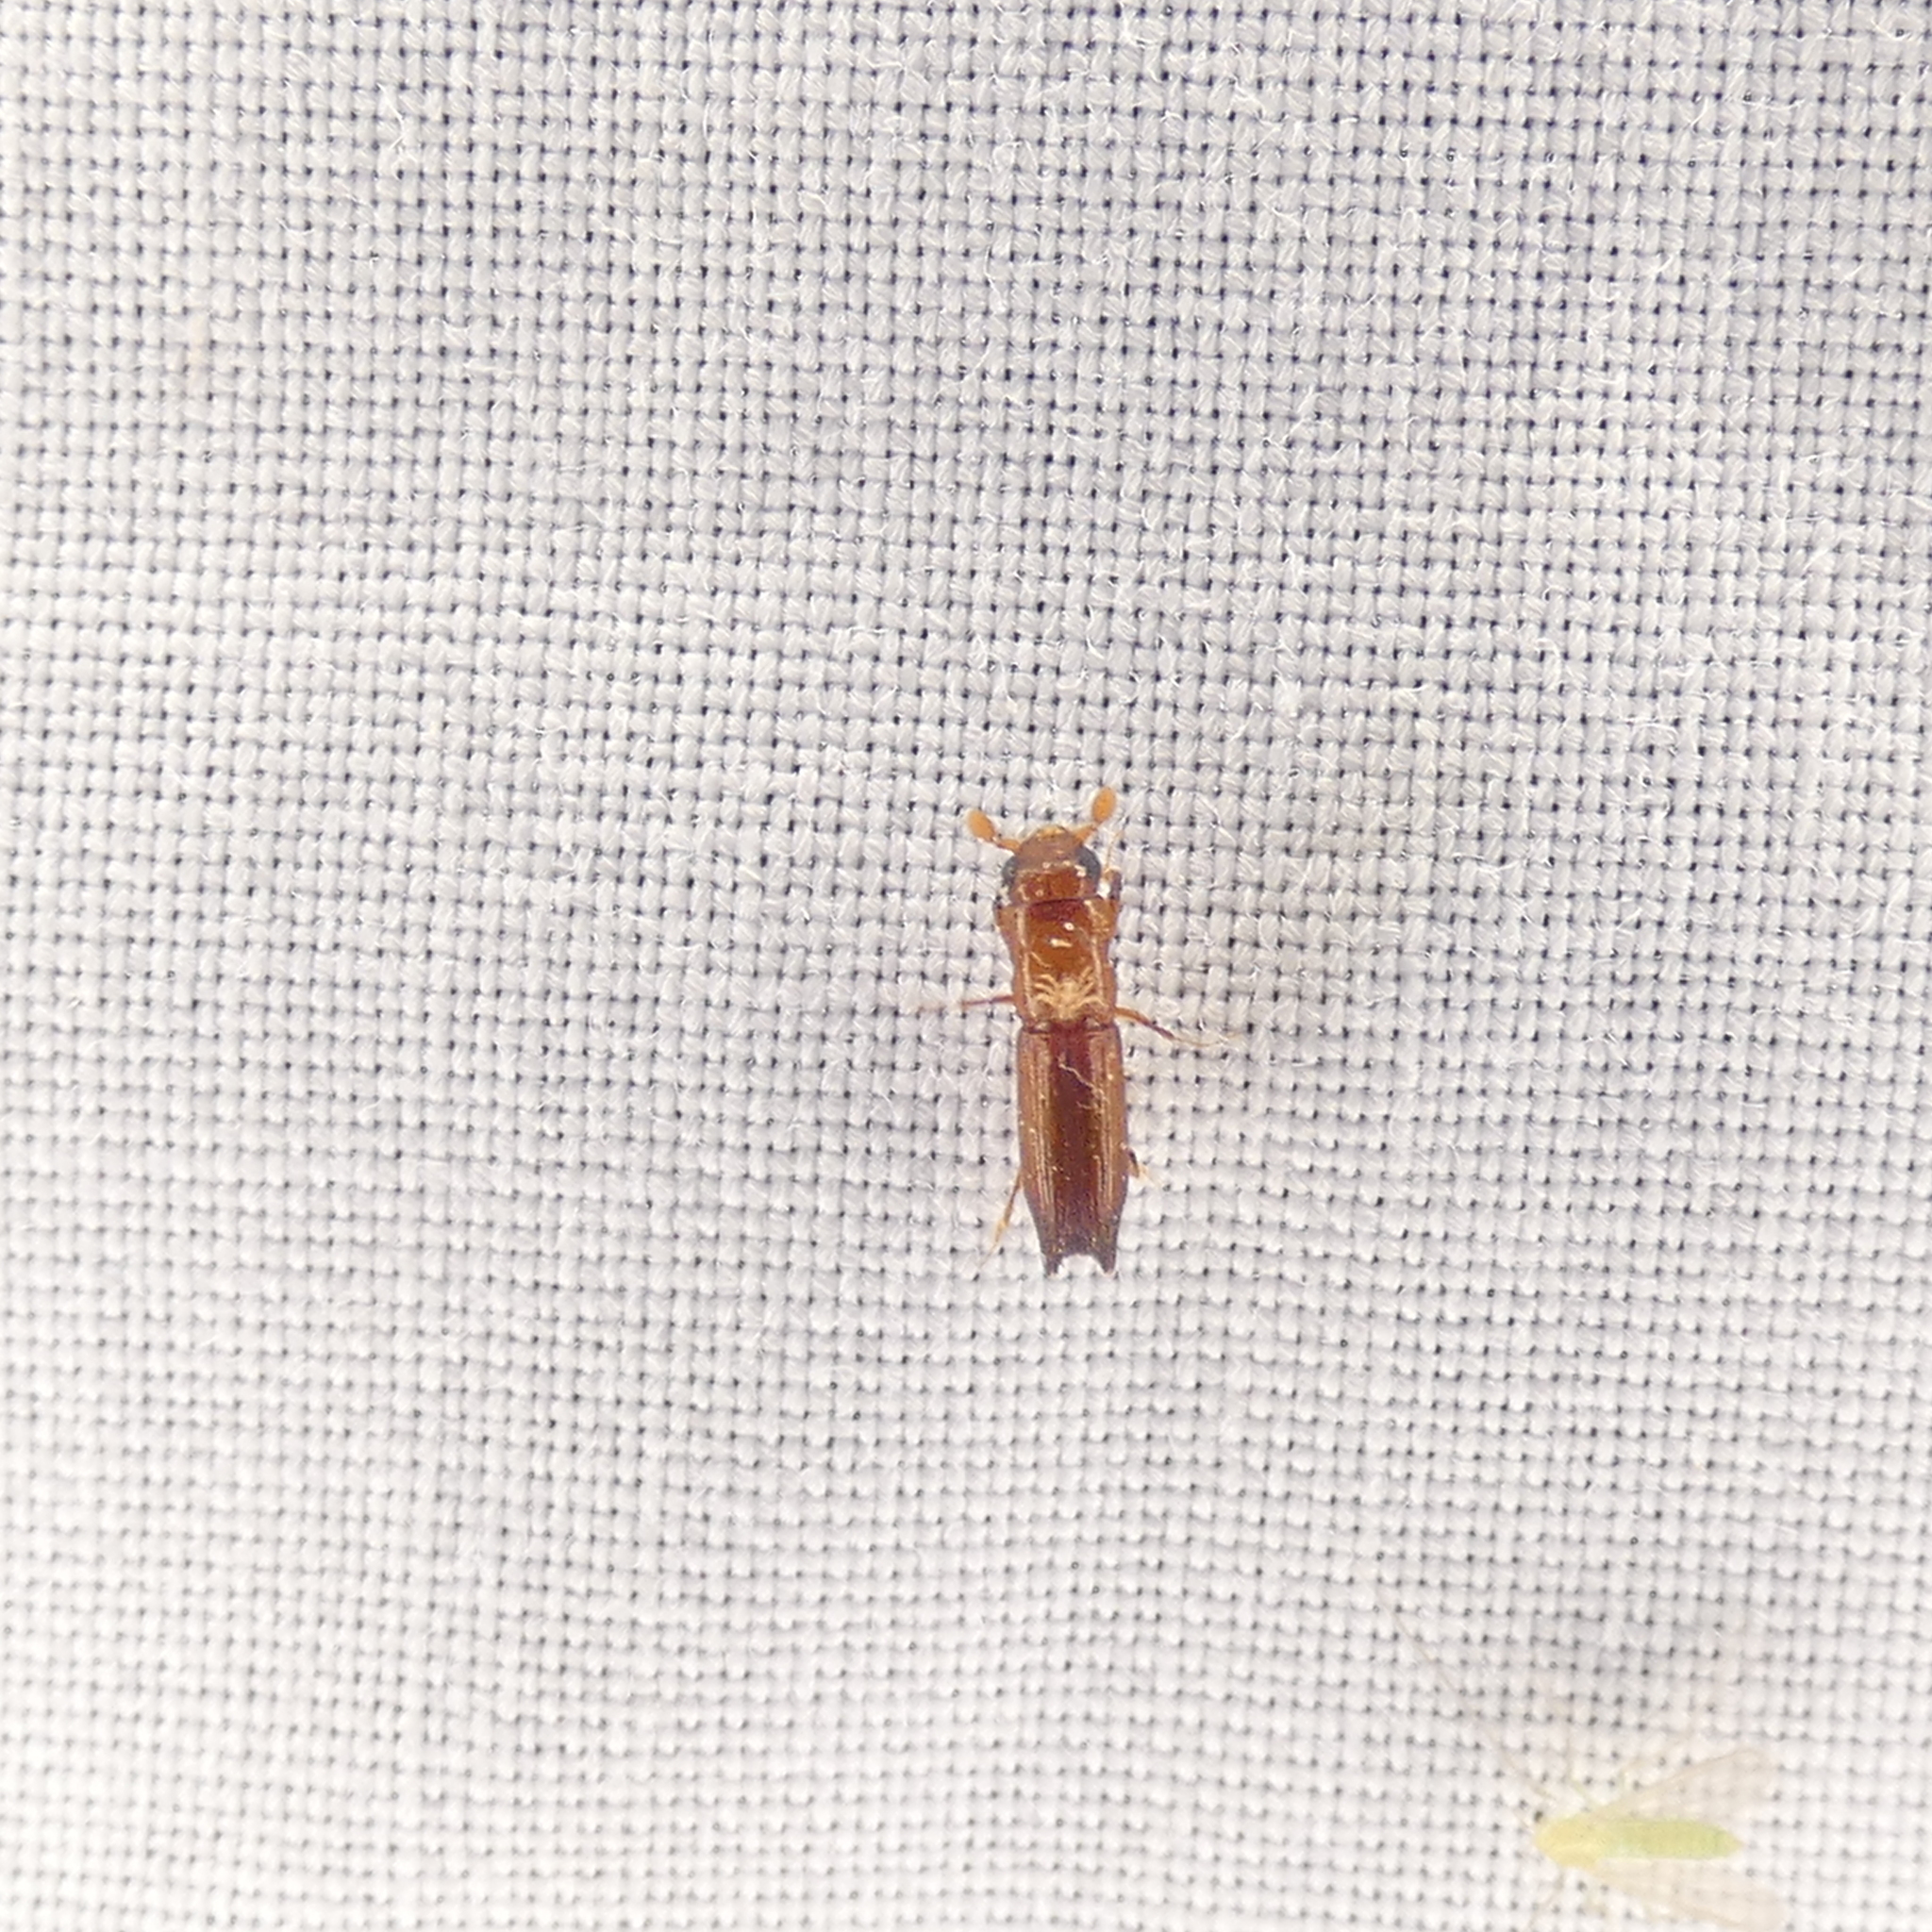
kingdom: Animalia
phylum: Arthropoda
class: Insecta
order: Coleoptera
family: Curculionidae
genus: Euplatypus
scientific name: Euplatypus compositus
